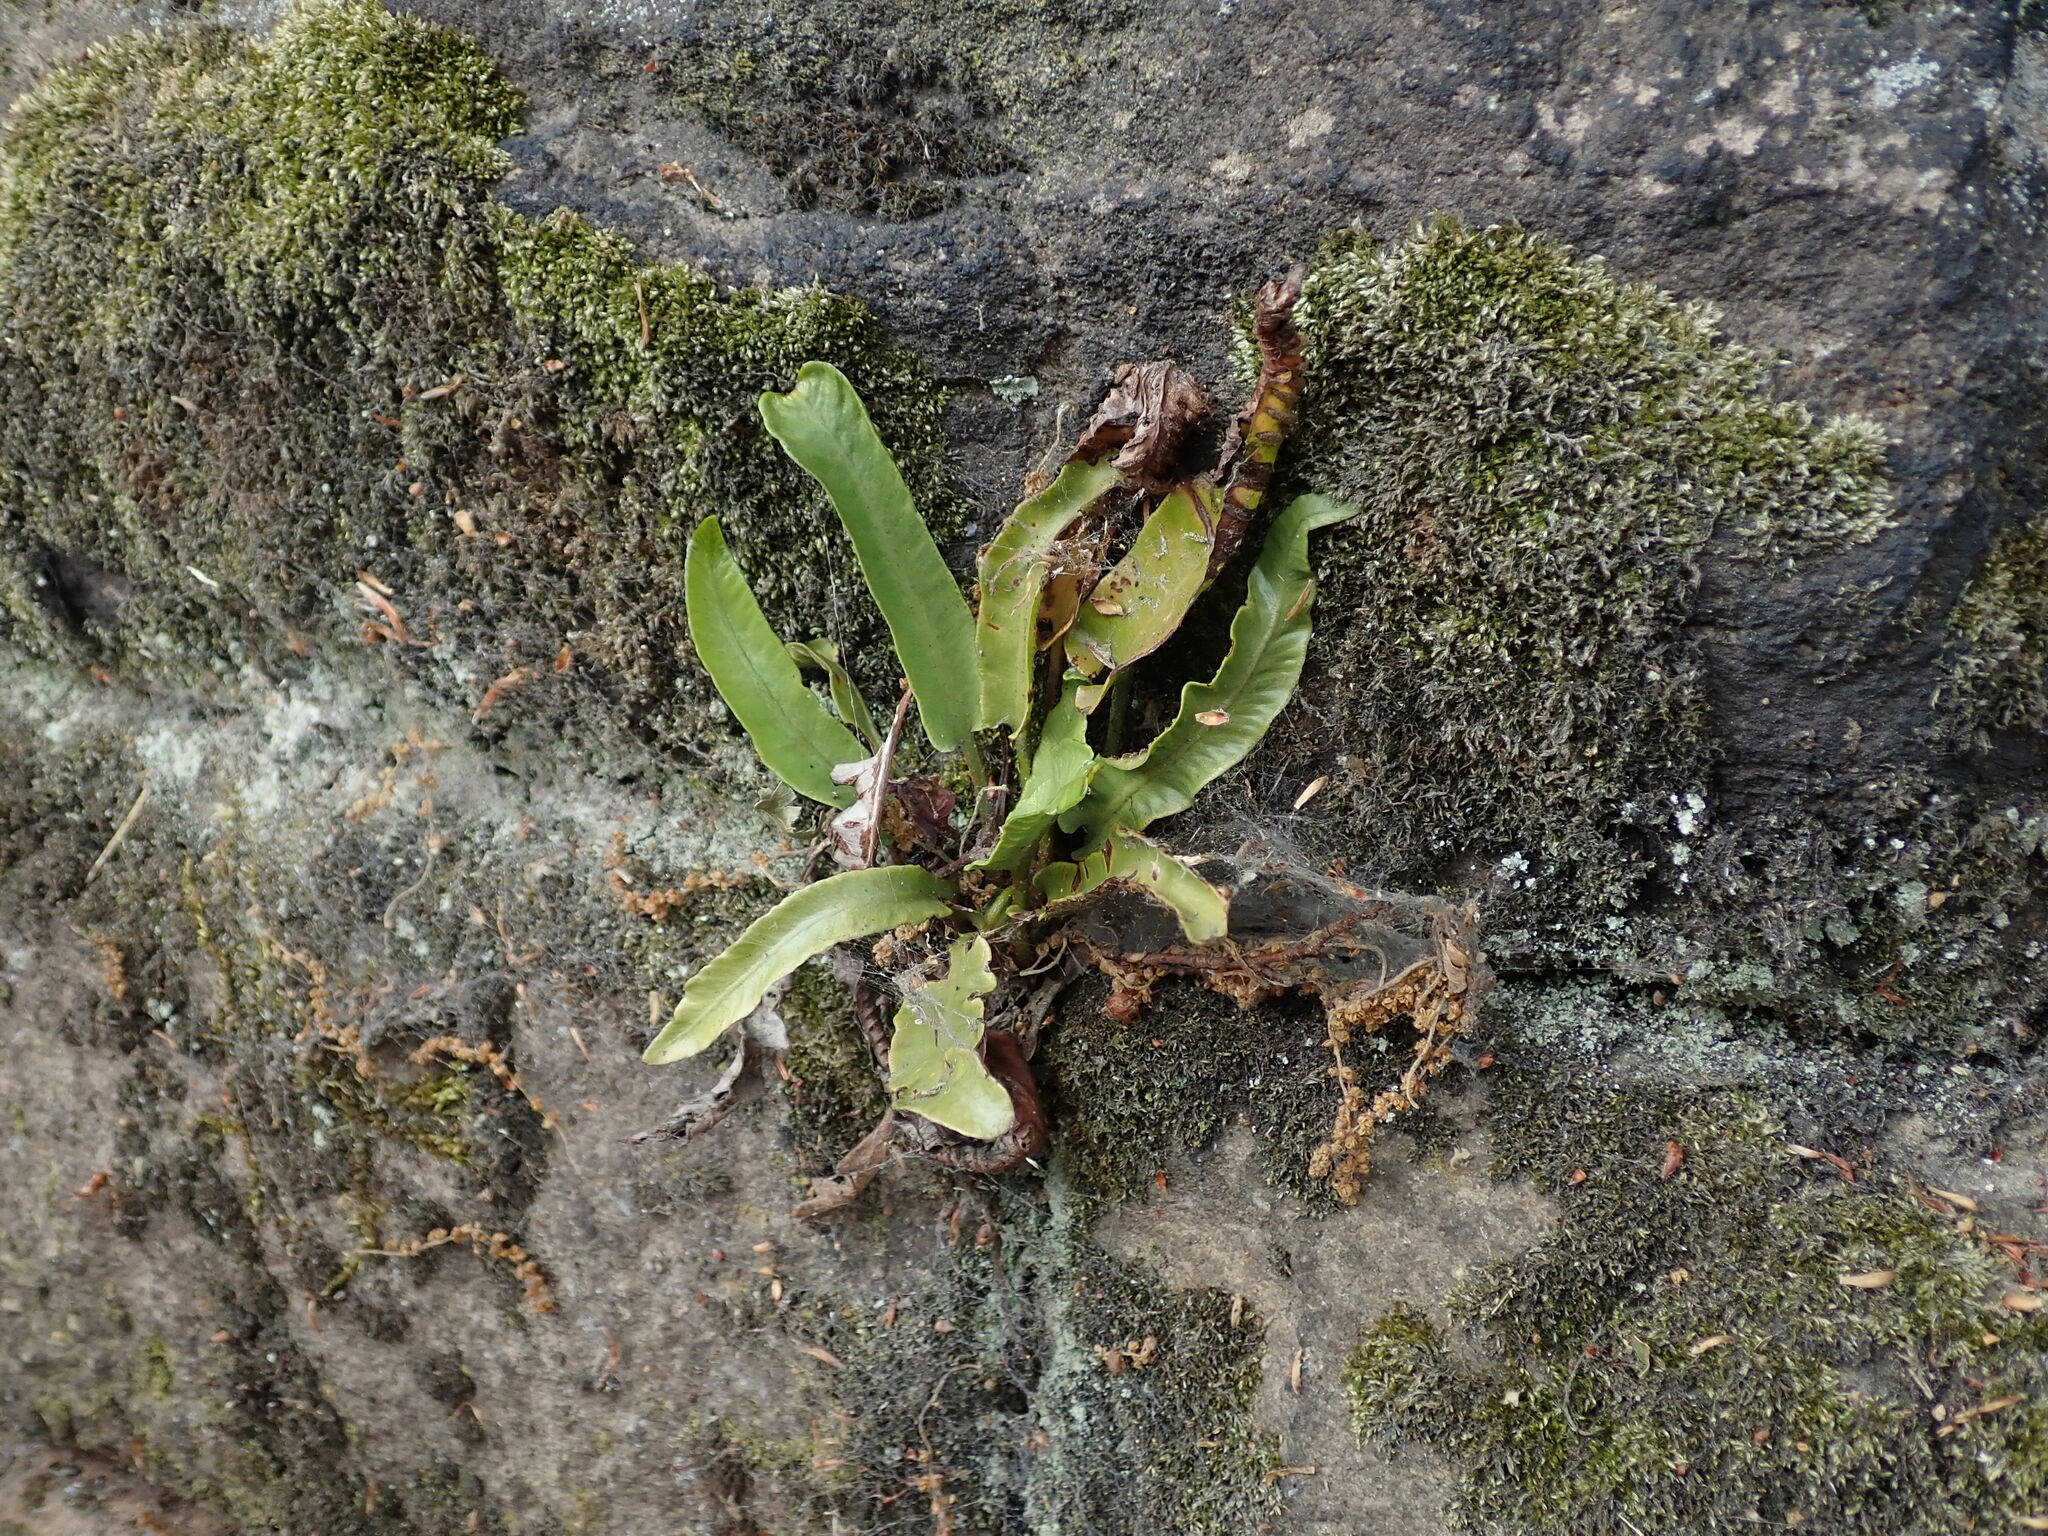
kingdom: Plantae
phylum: Tracheophyta
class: Polypodiopsida
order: Polypodiales
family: Aspleniaceae
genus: Asplenium
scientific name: Asplenium scolopendrium
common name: Hart's-tongue fern
